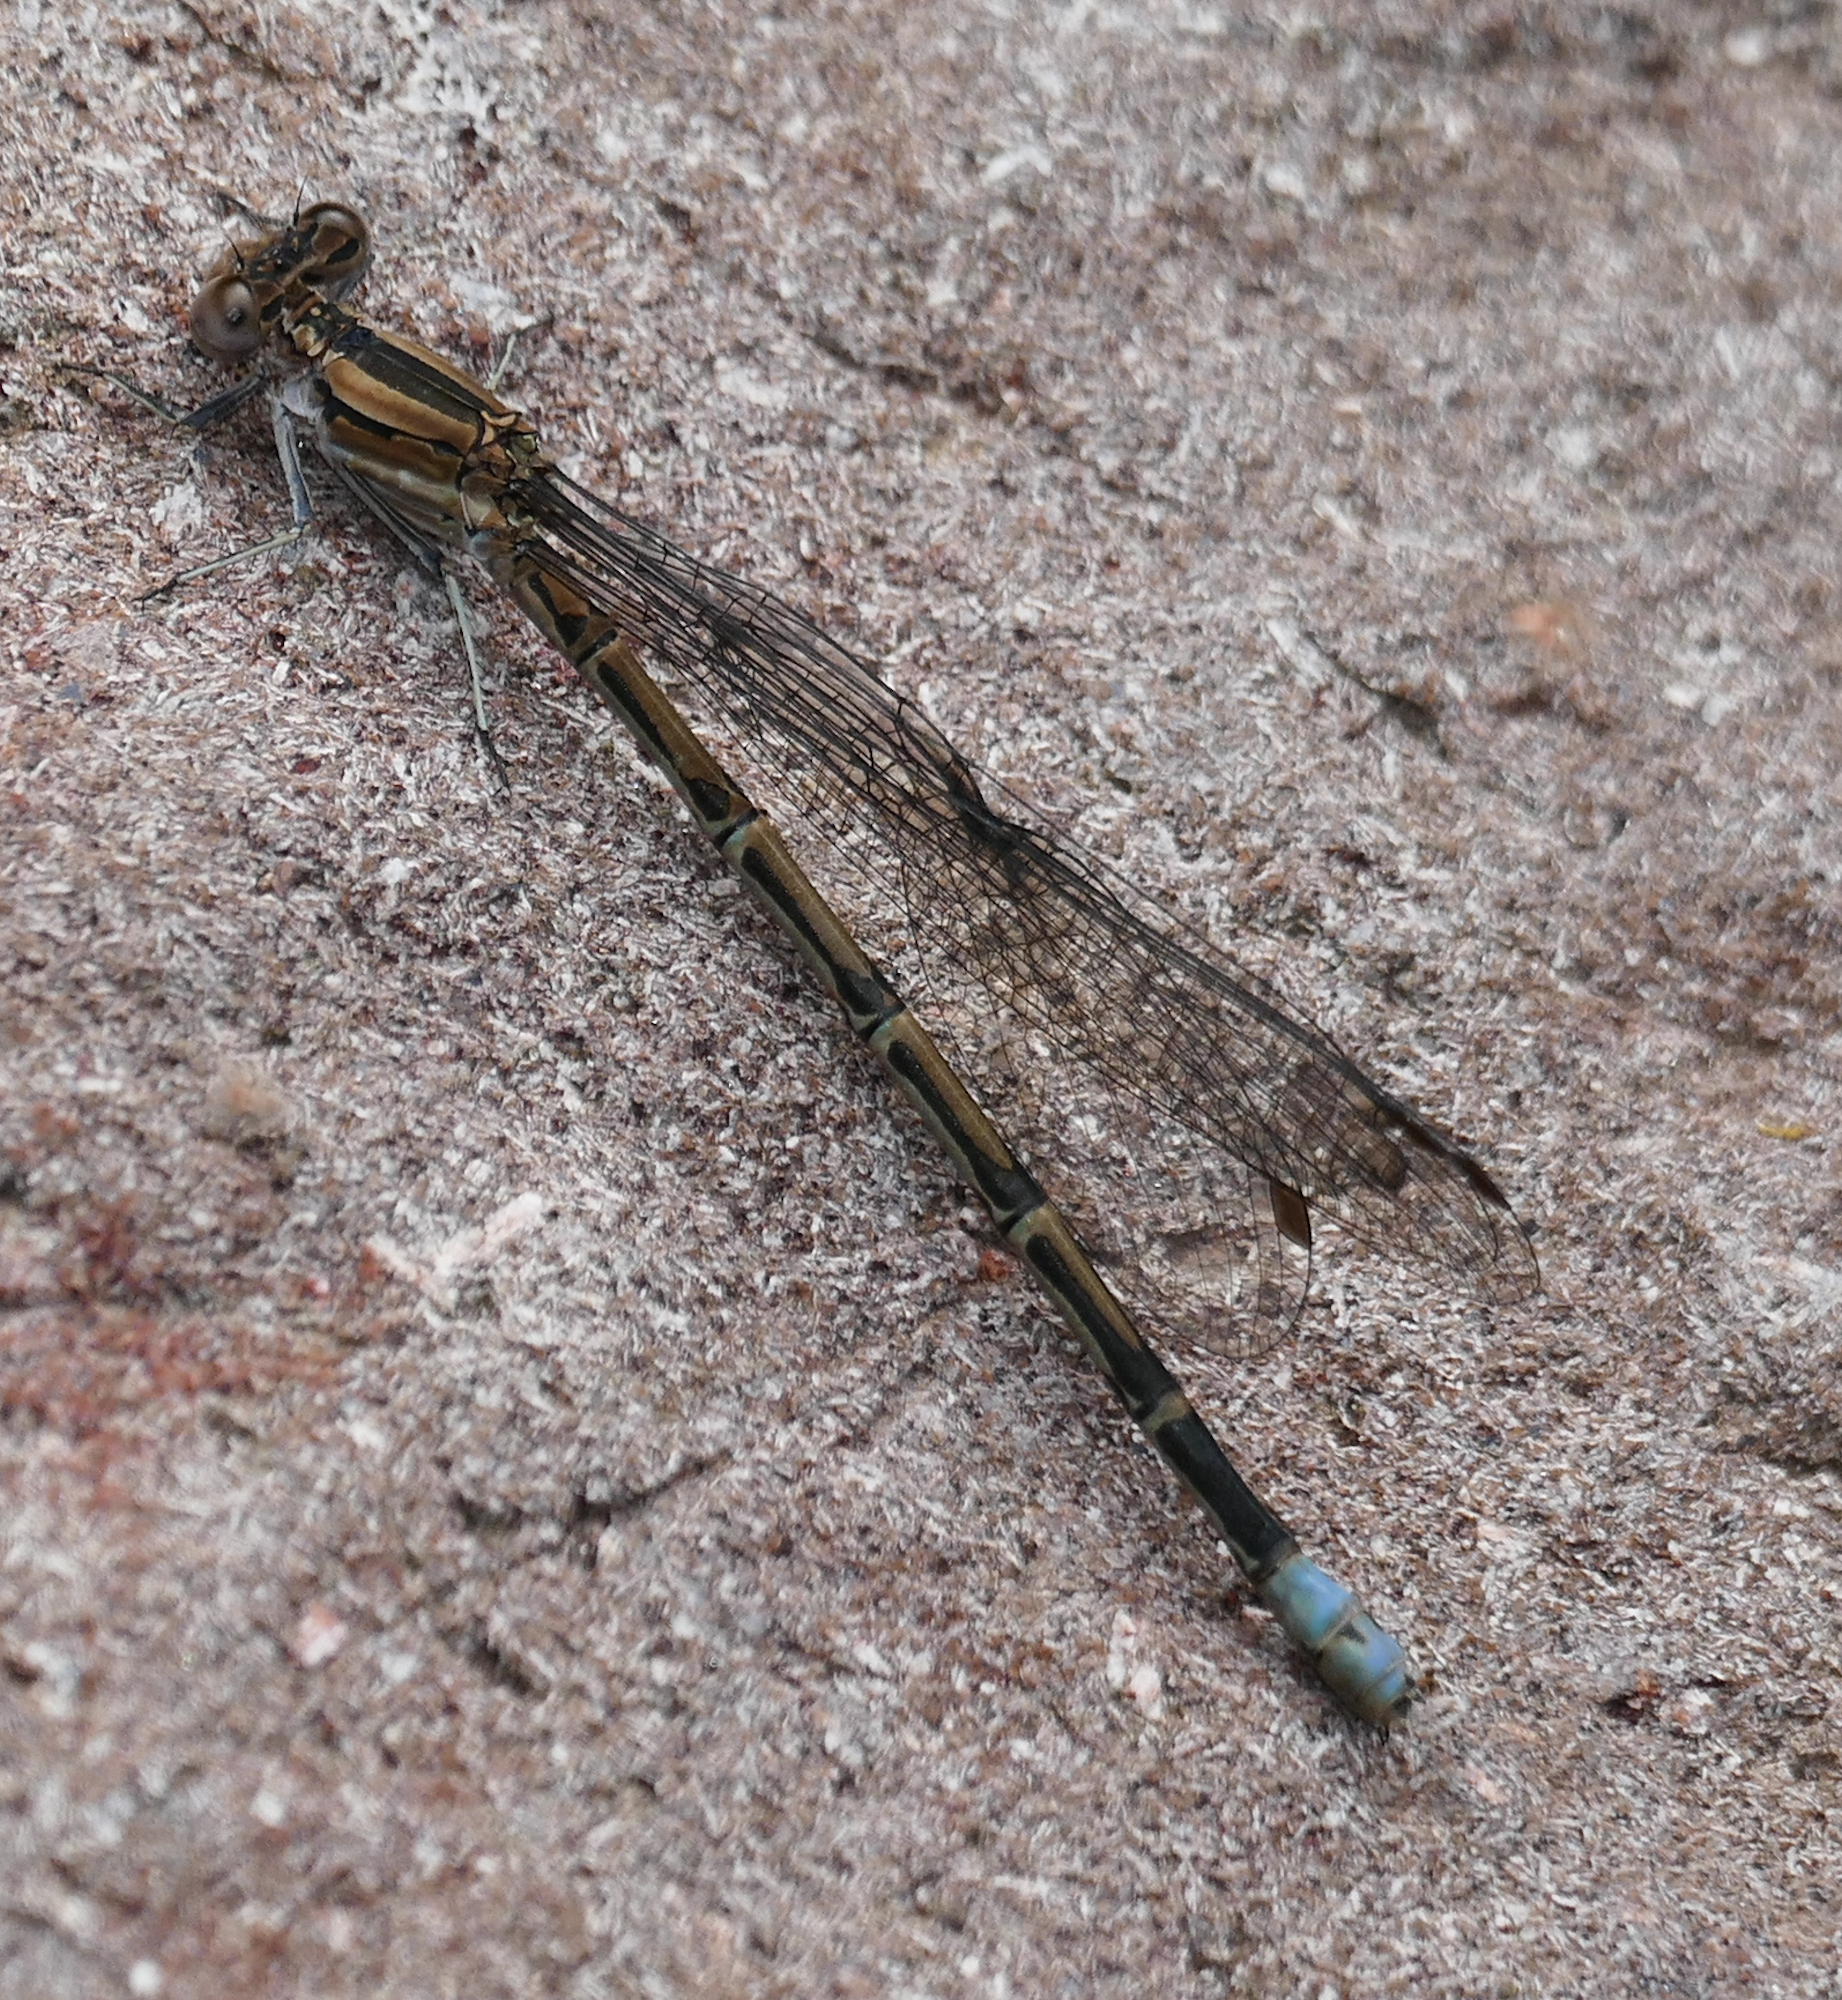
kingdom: Animalia
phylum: Arthropoda
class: Insecta
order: Odonata
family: Coenagrionidae
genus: Argia
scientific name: Argia funebris
